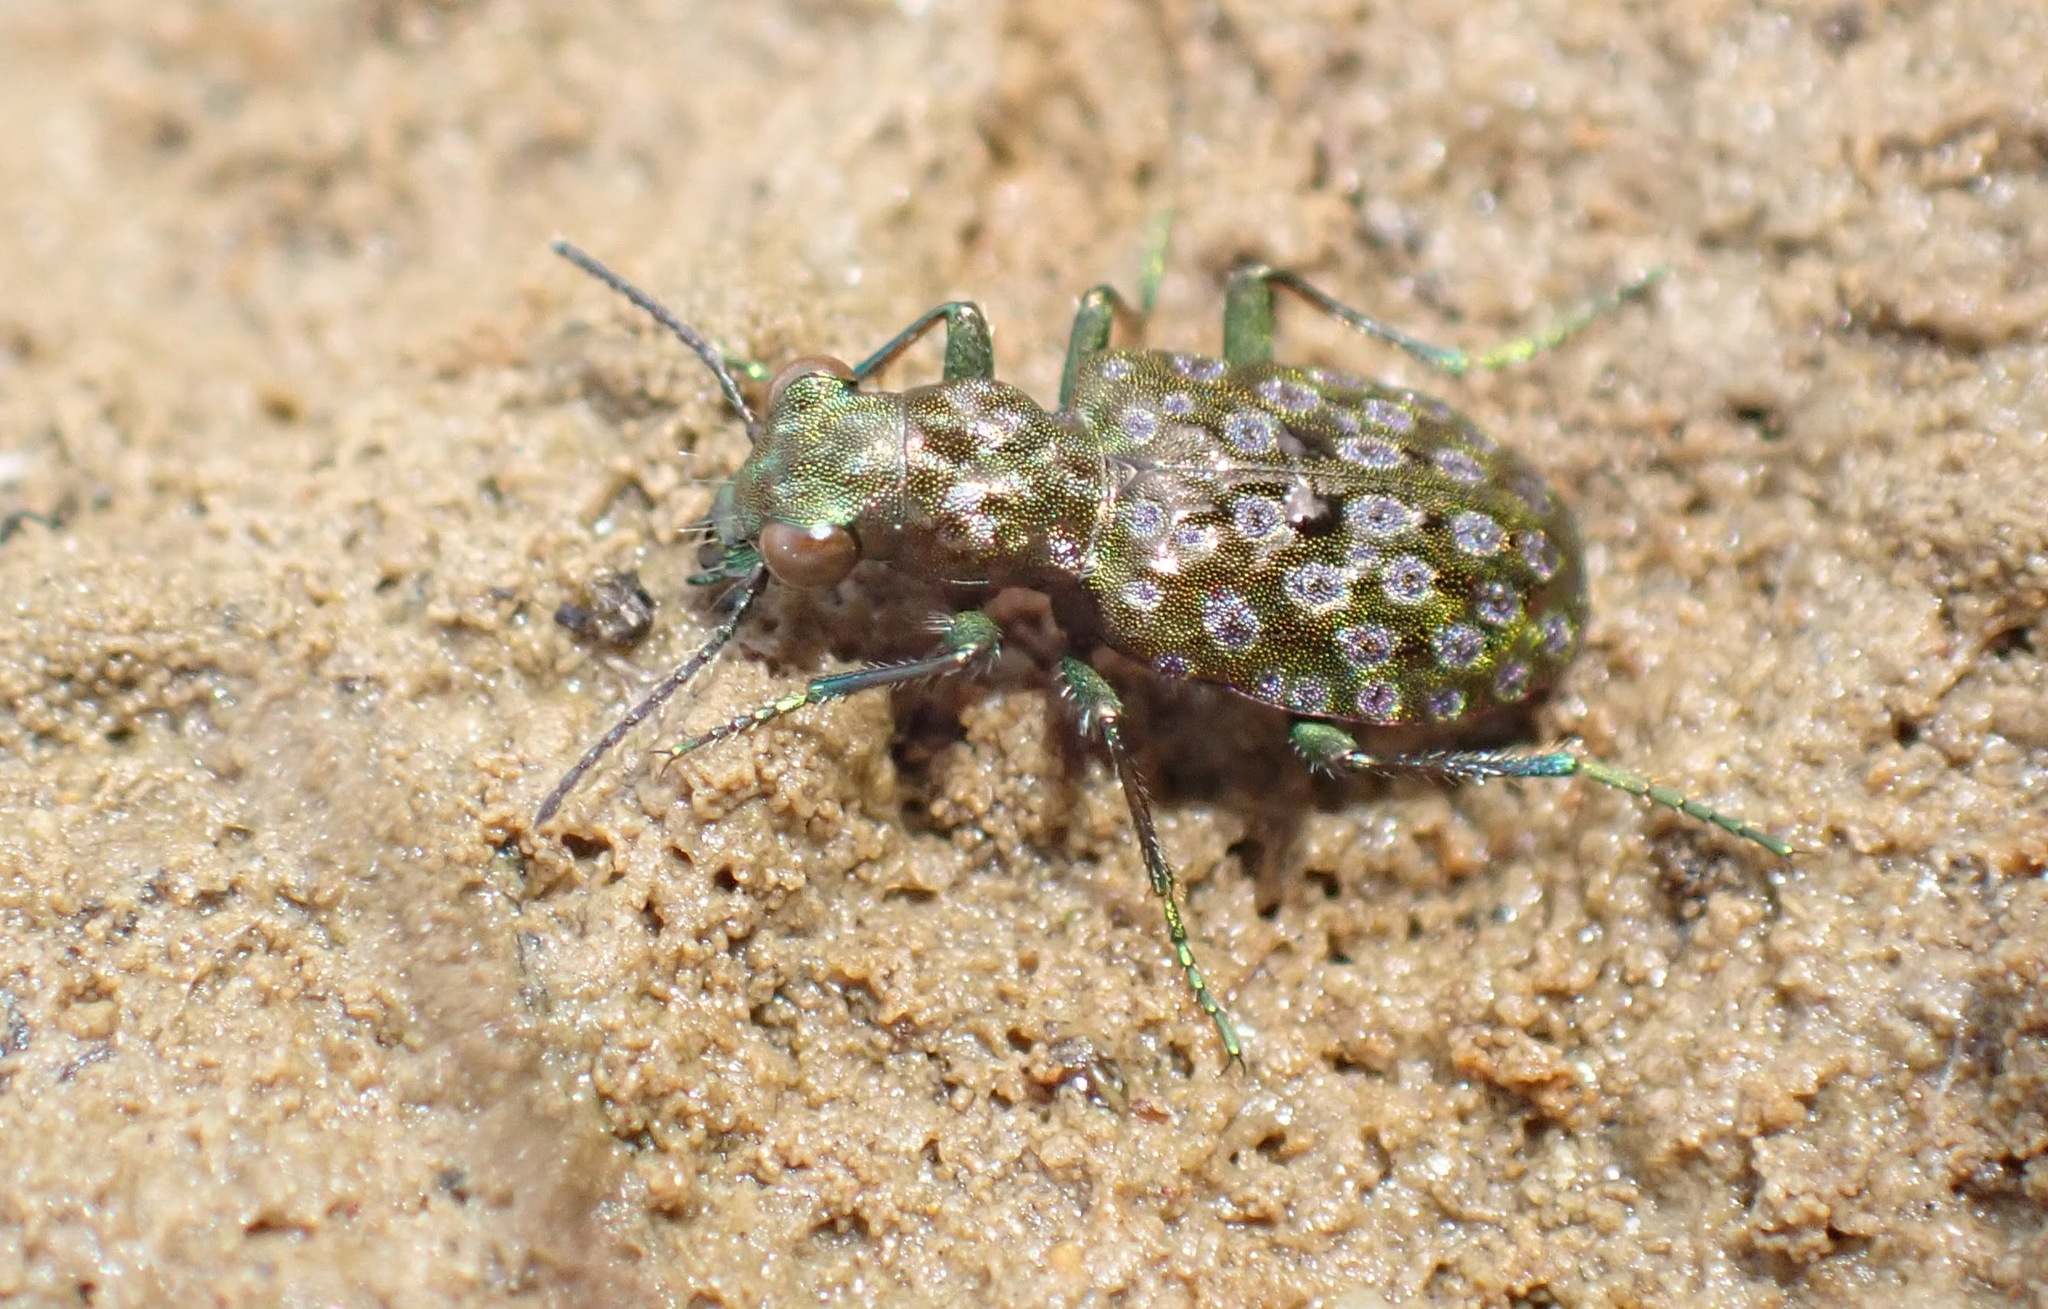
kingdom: Animalia
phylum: Arthropoda
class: Insecta
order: Coleoptera
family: Carabidae
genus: Elaphrus
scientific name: Elaphrus purpurans
